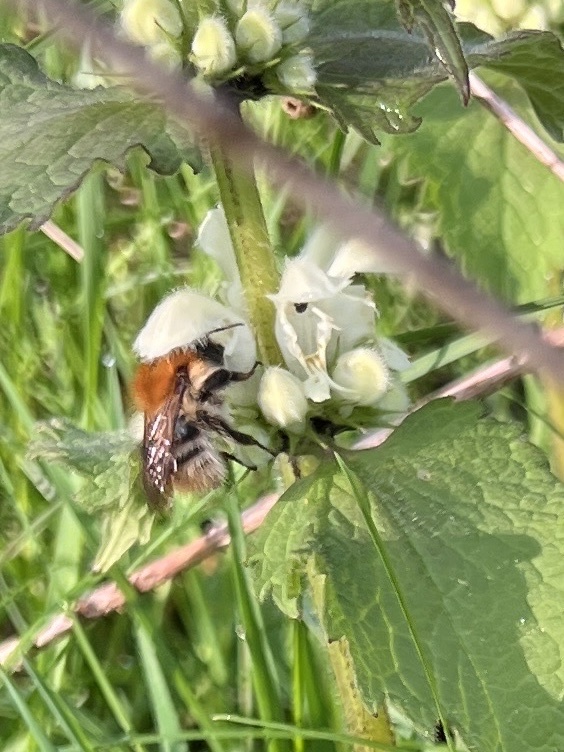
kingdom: Animalia
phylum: Arthropoda
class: Insecta
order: Hymenoptera
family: Apidae
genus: Bombus
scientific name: Bombus pascuorum
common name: Common carder bee
